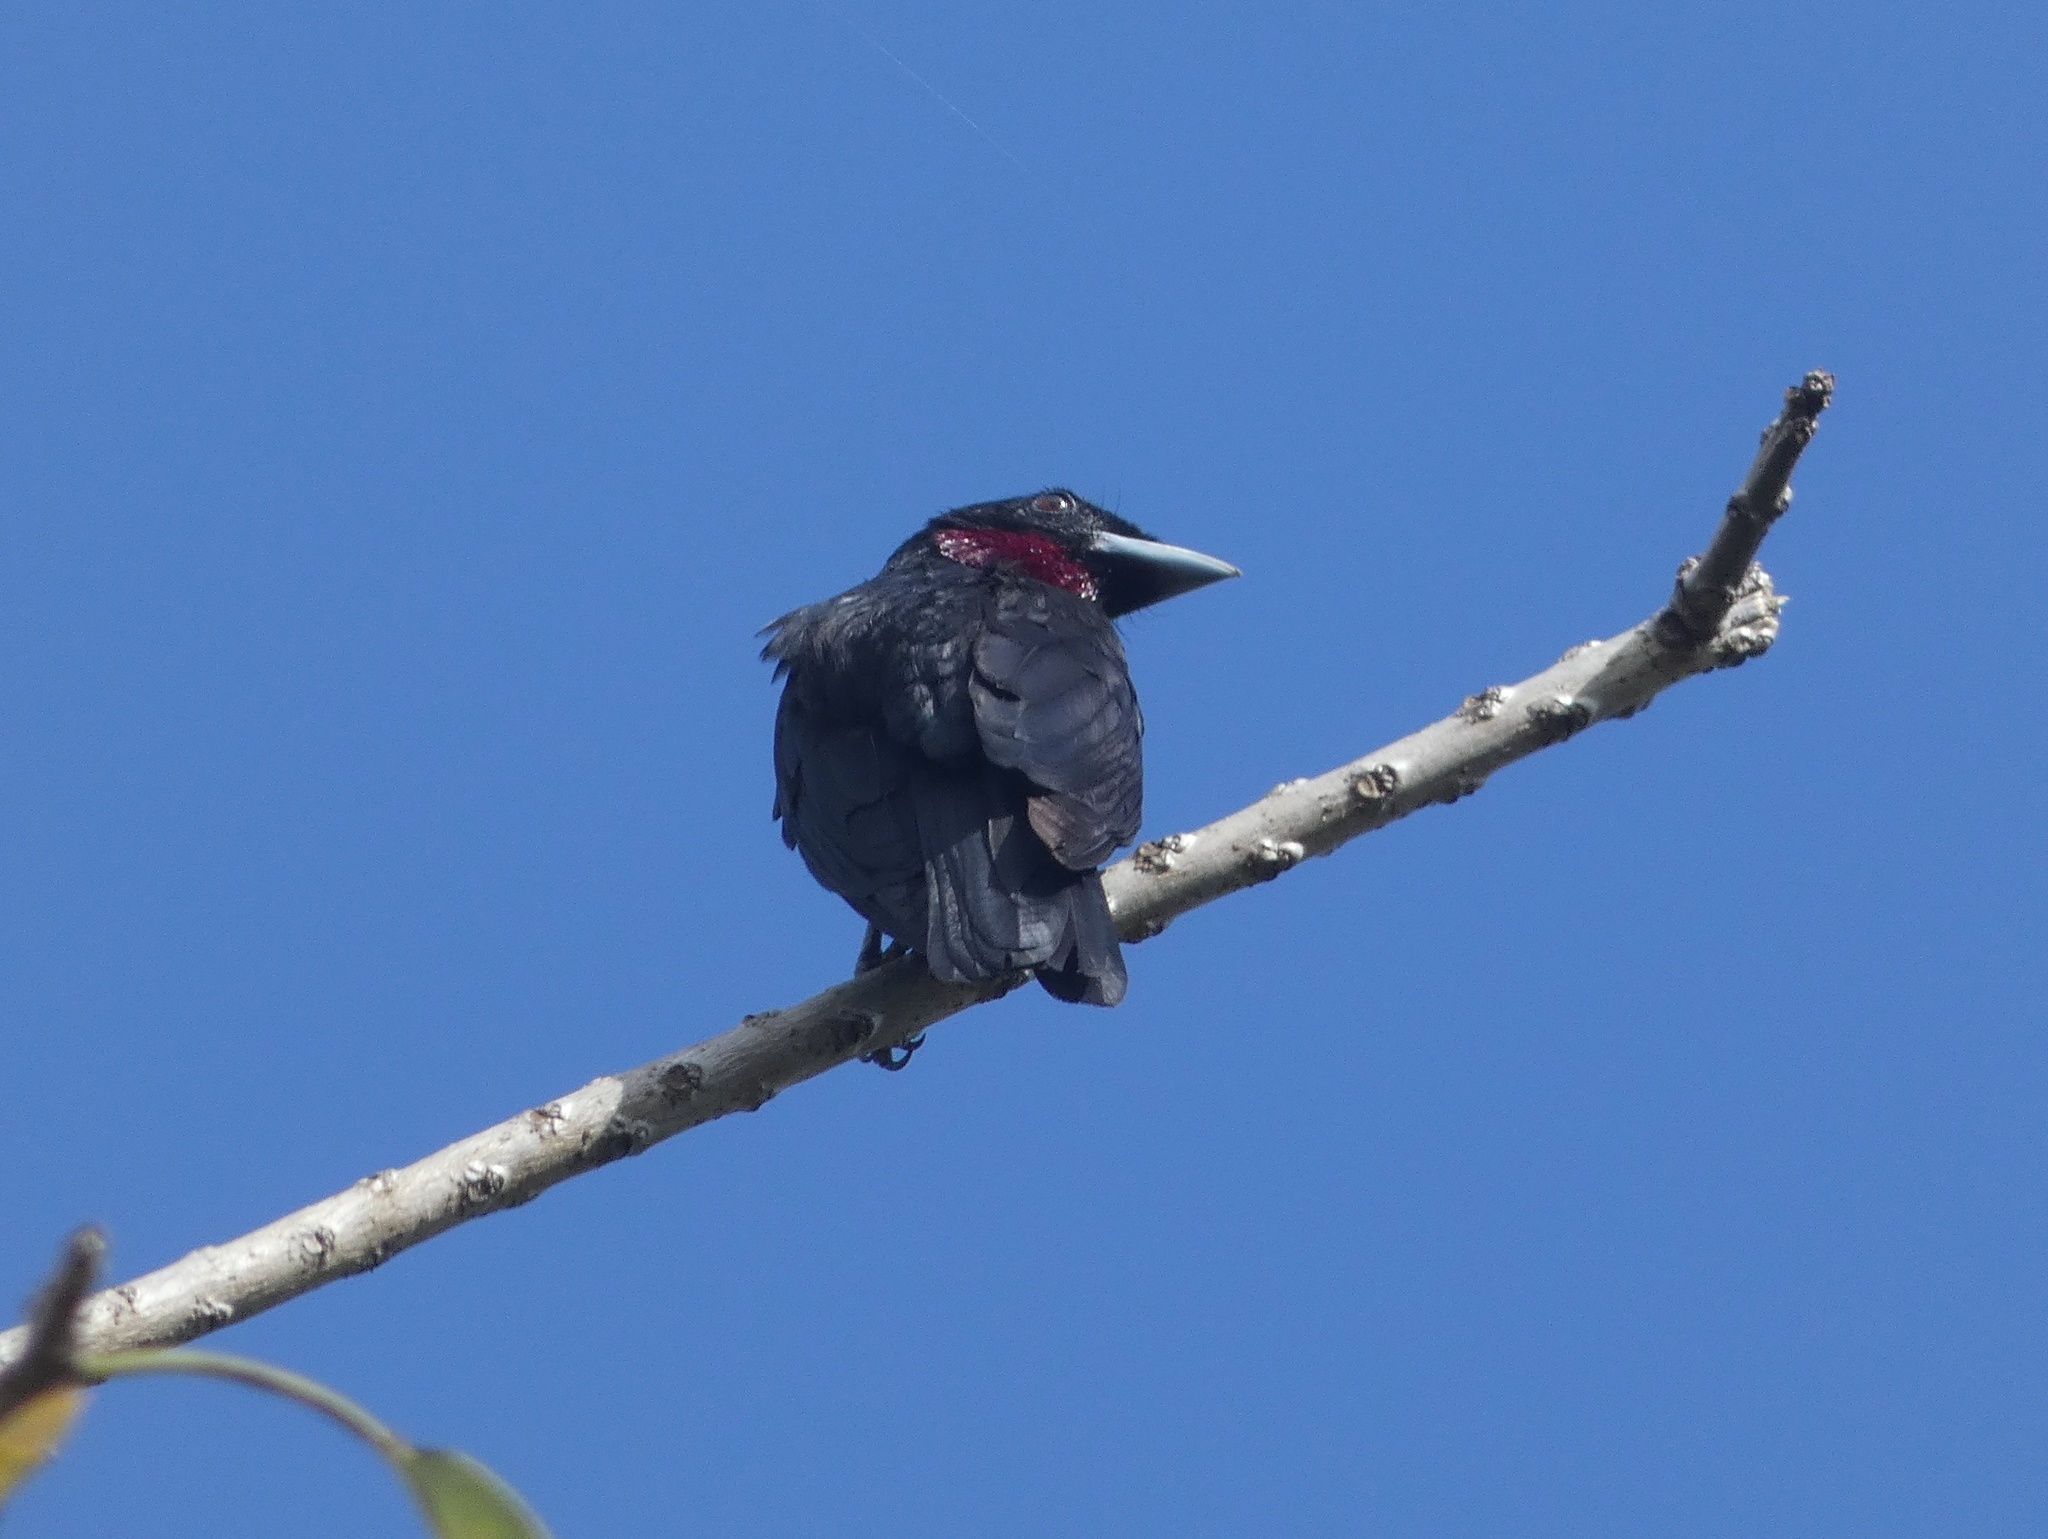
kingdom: Animalia
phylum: Chordata
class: Aves
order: Passeriformes
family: Cotingidae
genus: Querula
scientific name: Querula purpurata
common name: Purple-throated fruitcrow
